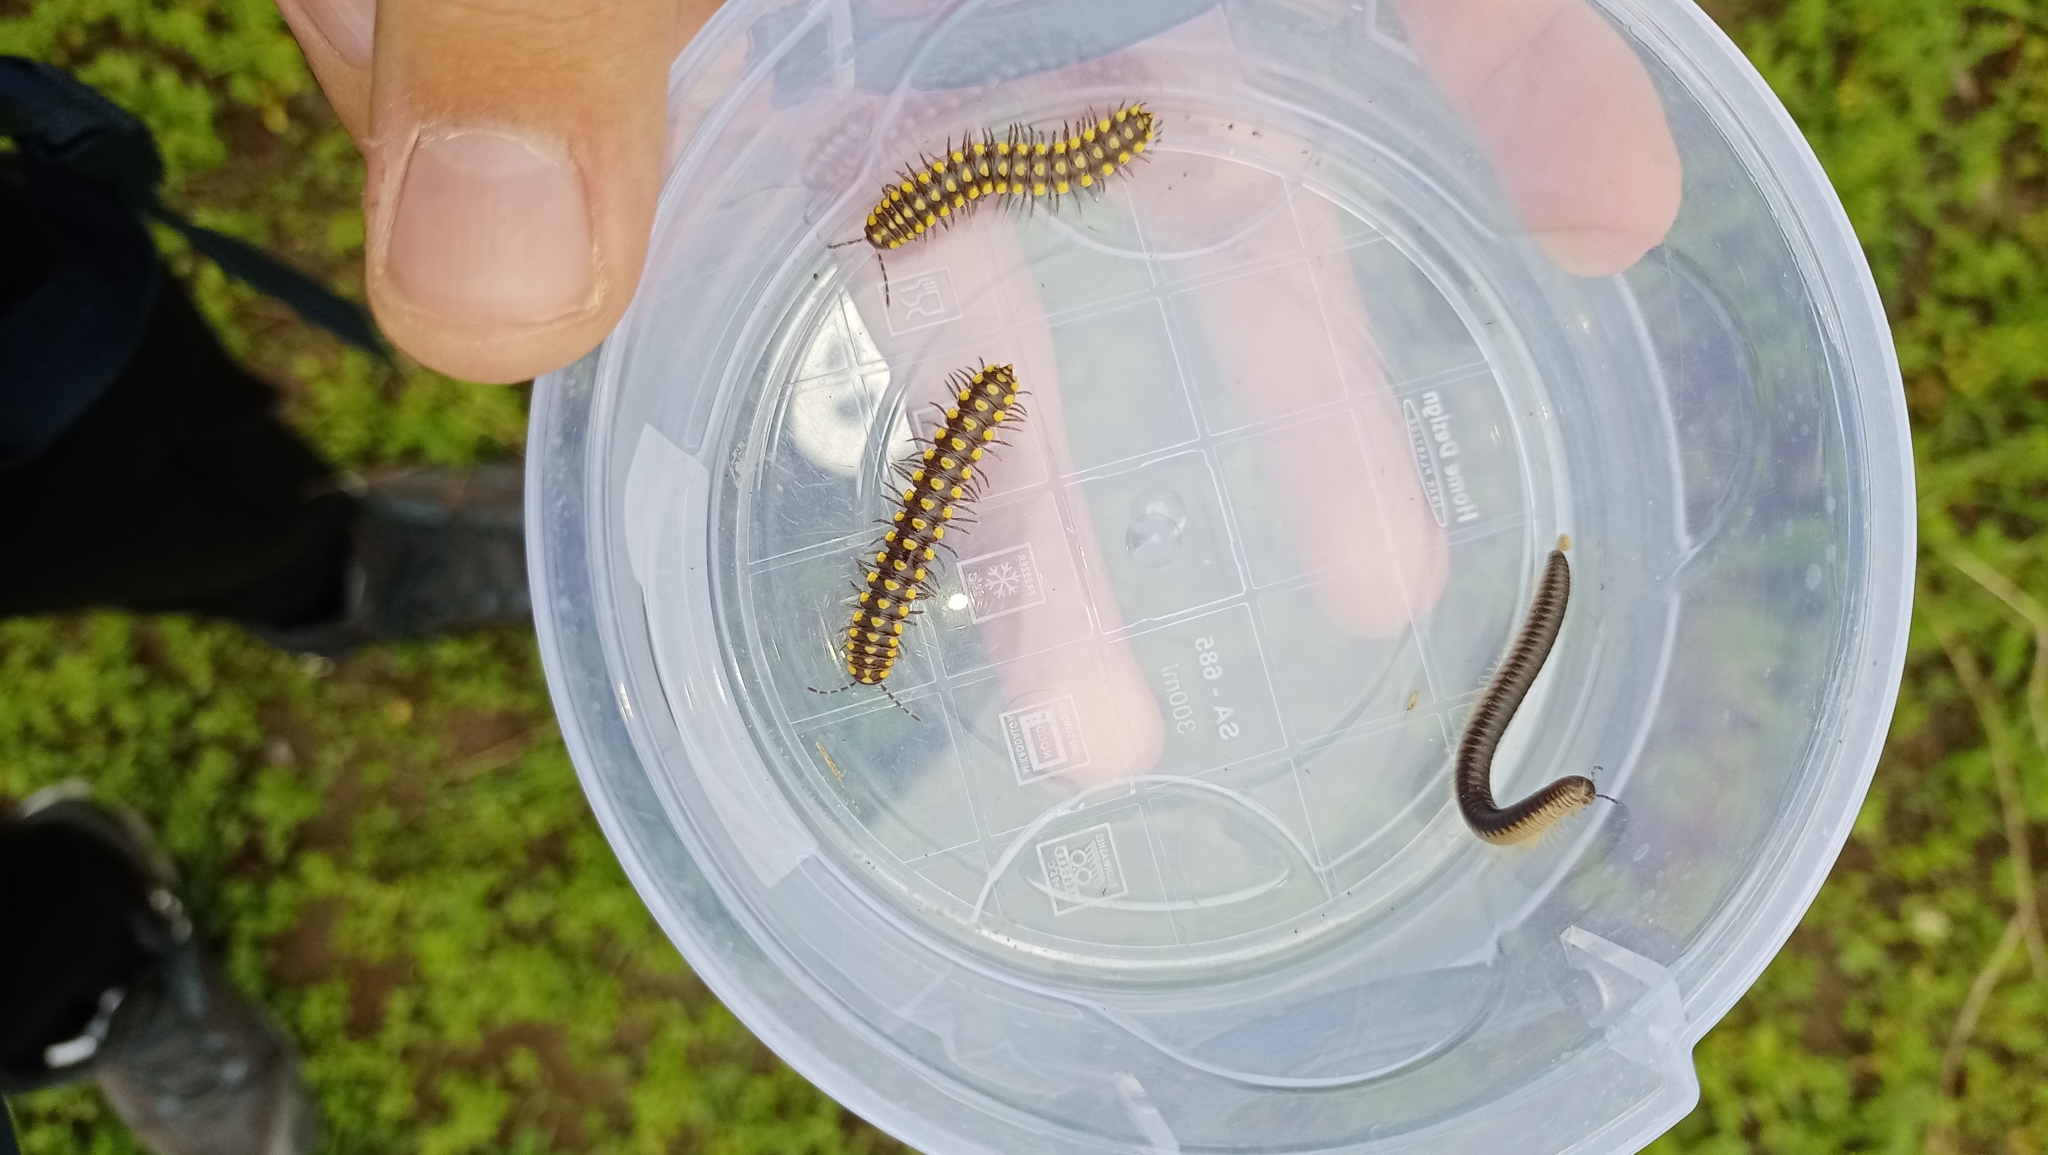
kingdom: Animalia
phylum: Arthropoda
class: Diplopoda
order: Julida
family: Julidae
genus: Pachyiulus
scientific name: Pachyiulus flavipes
